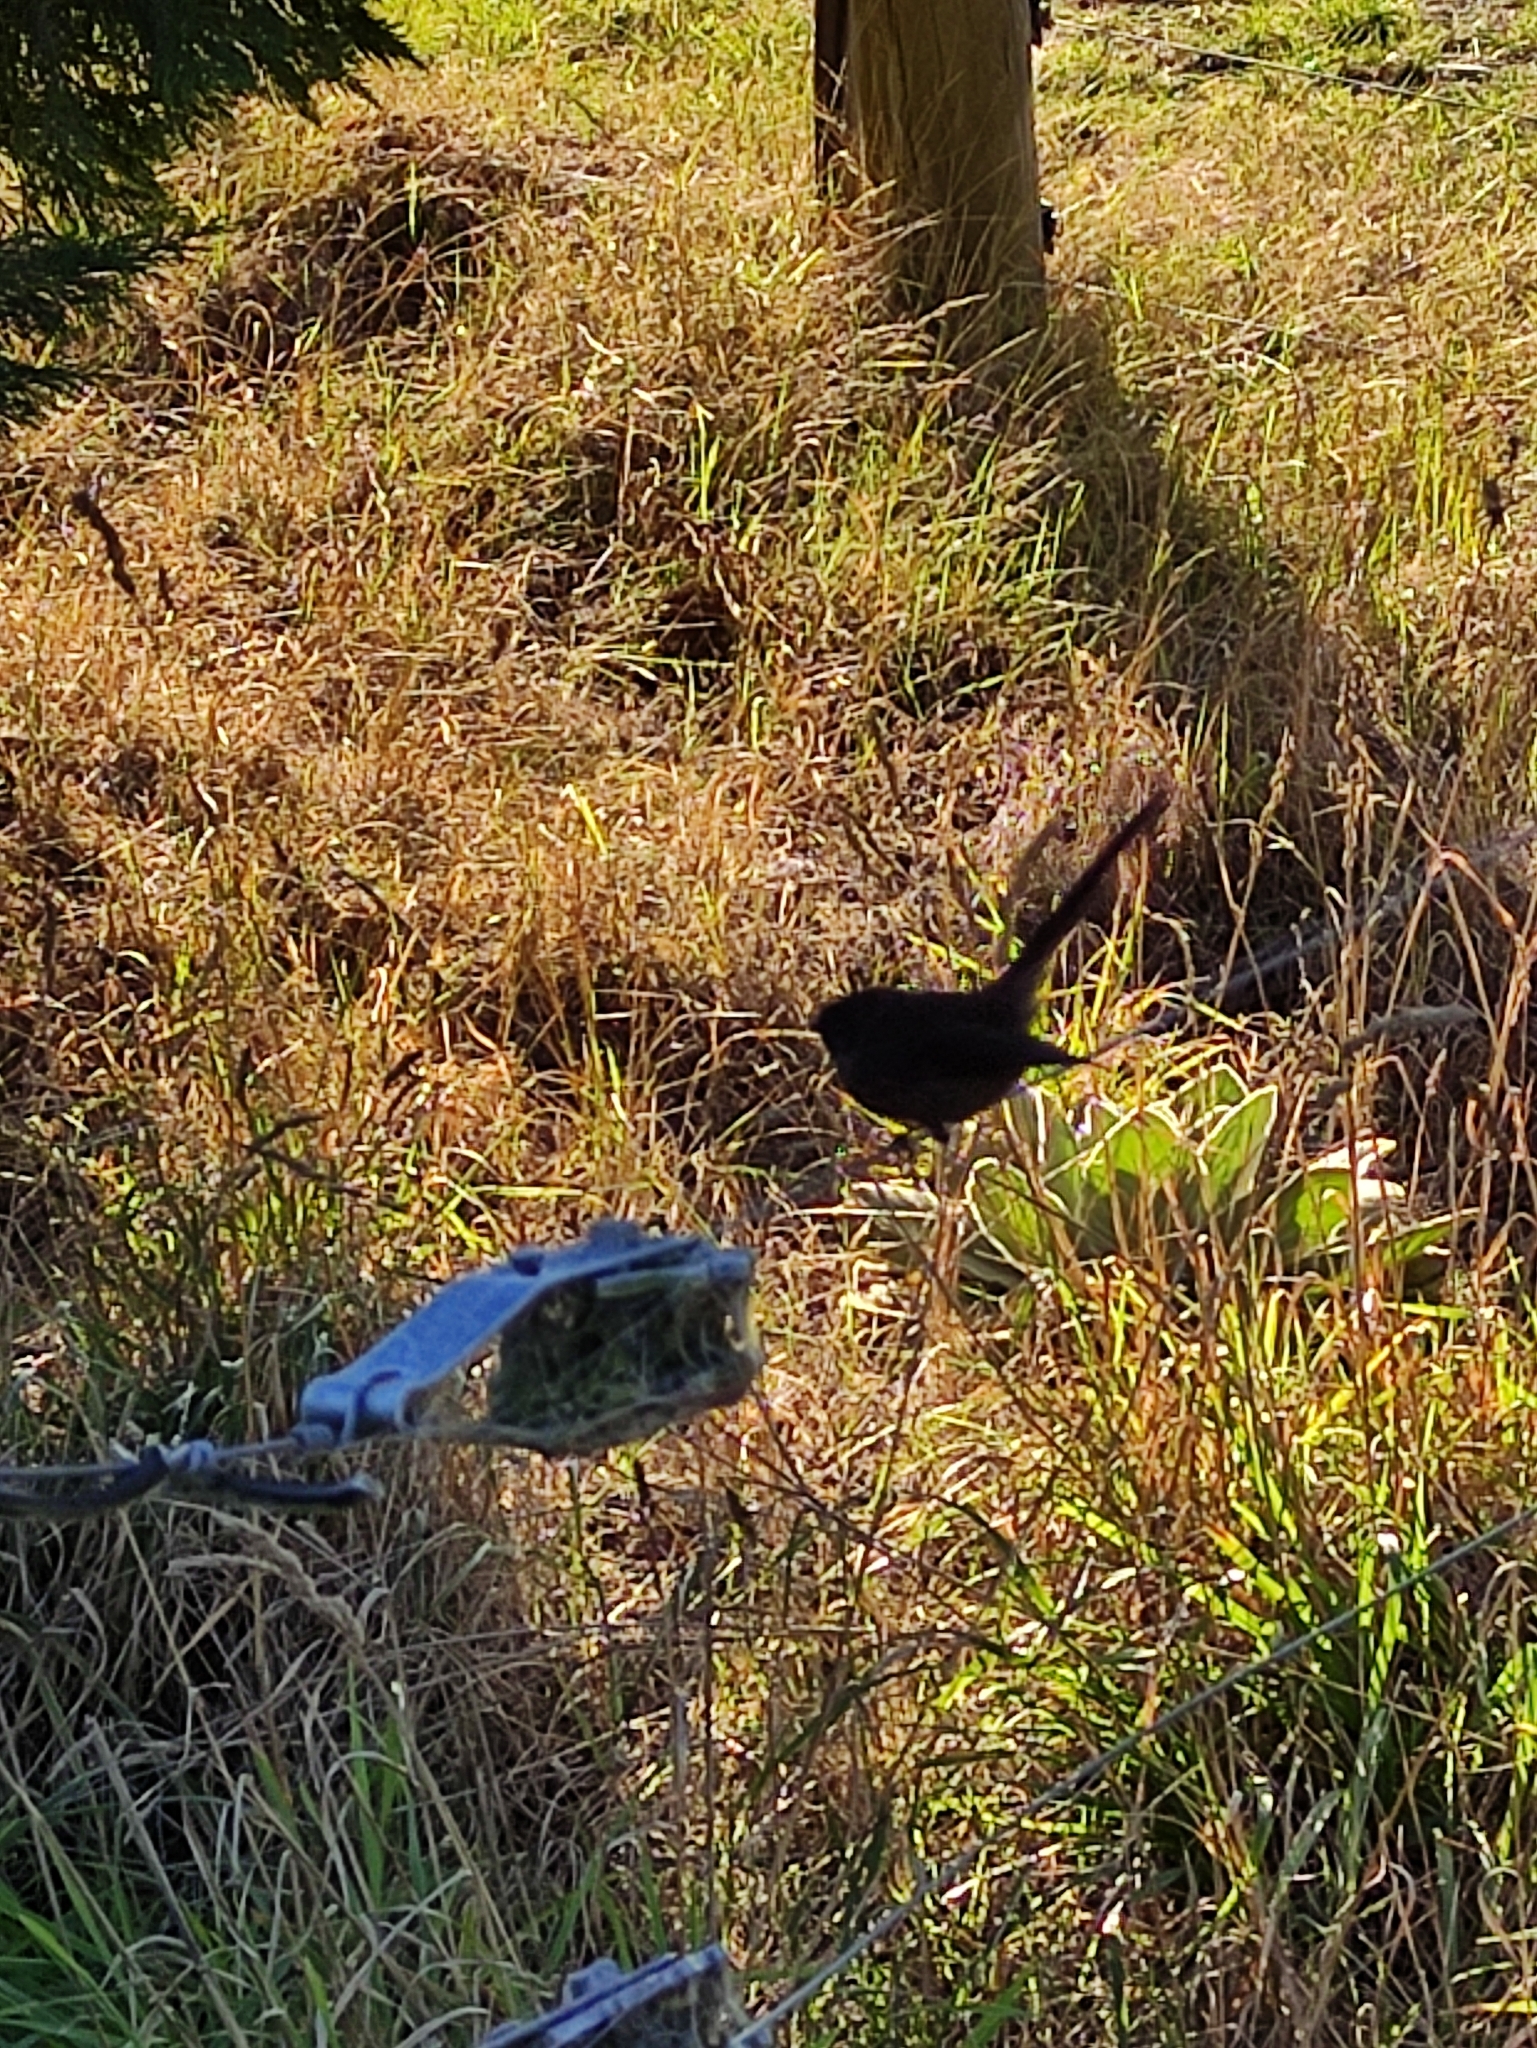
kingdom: Animalia
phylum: Chordata
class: Aves
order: Passeriformes
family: Rhipiduridae
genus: Rhipidura
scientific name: Rhipidura fuliginosa
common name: New zealand fantail
